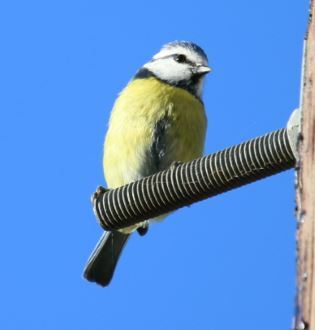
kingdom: Animalia
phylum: Chordata
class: Aves
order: Passeriformes
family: Paridae
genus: Cyanistes
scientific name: Cyanistes caeruleus
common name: Eurasian blue tit
